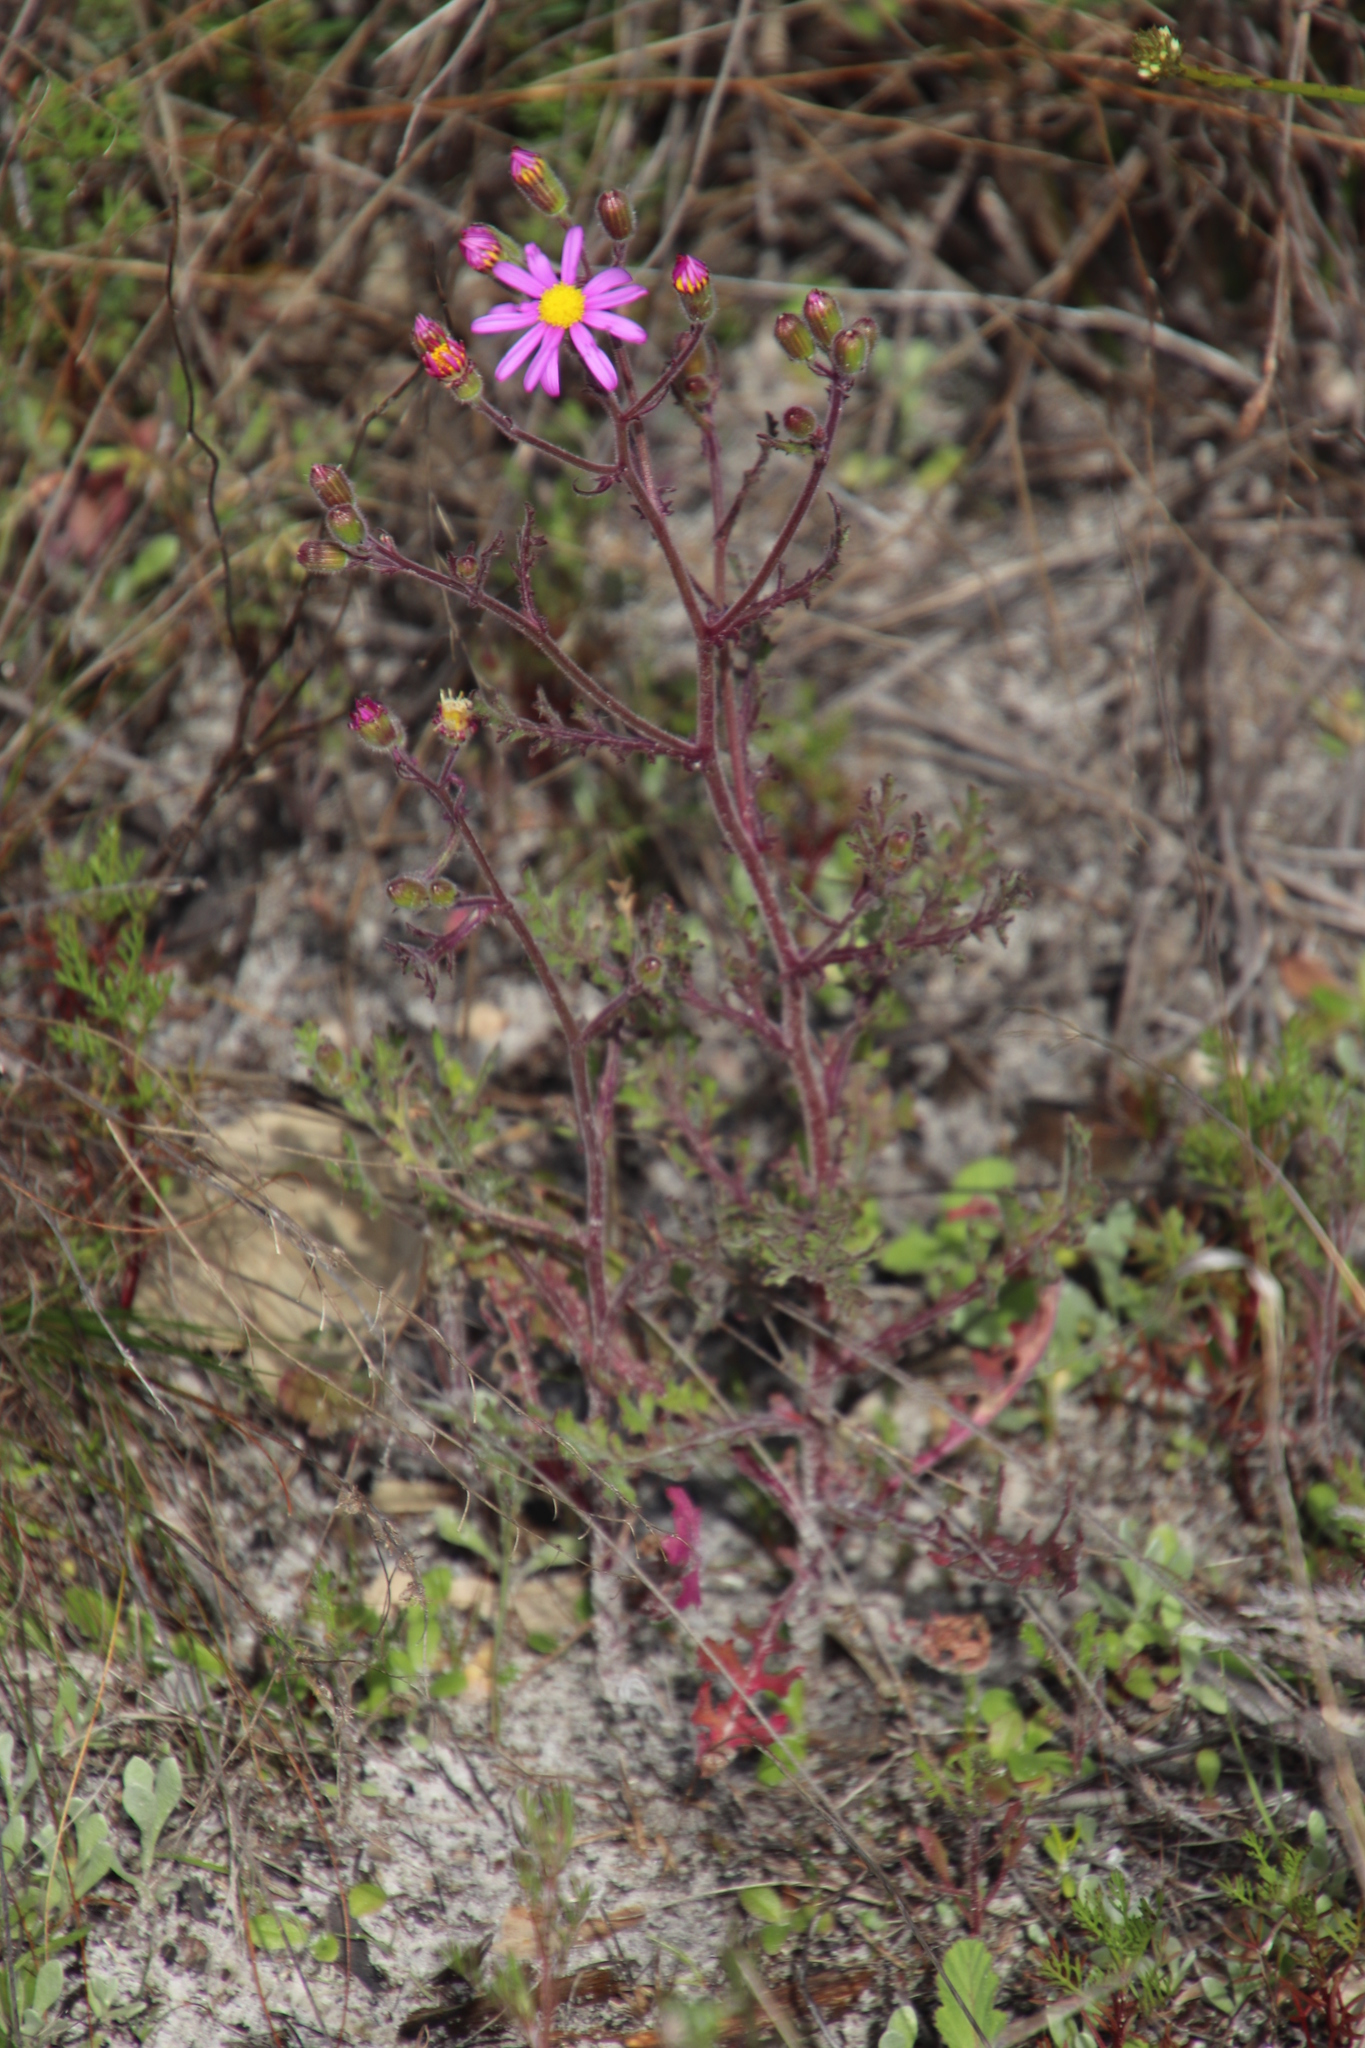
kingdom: Plantae
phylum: Tracheophyta
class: Magnoliopsida
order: Asterales
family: Asteraceae
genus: Senecio
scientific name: Senecio arenarius
